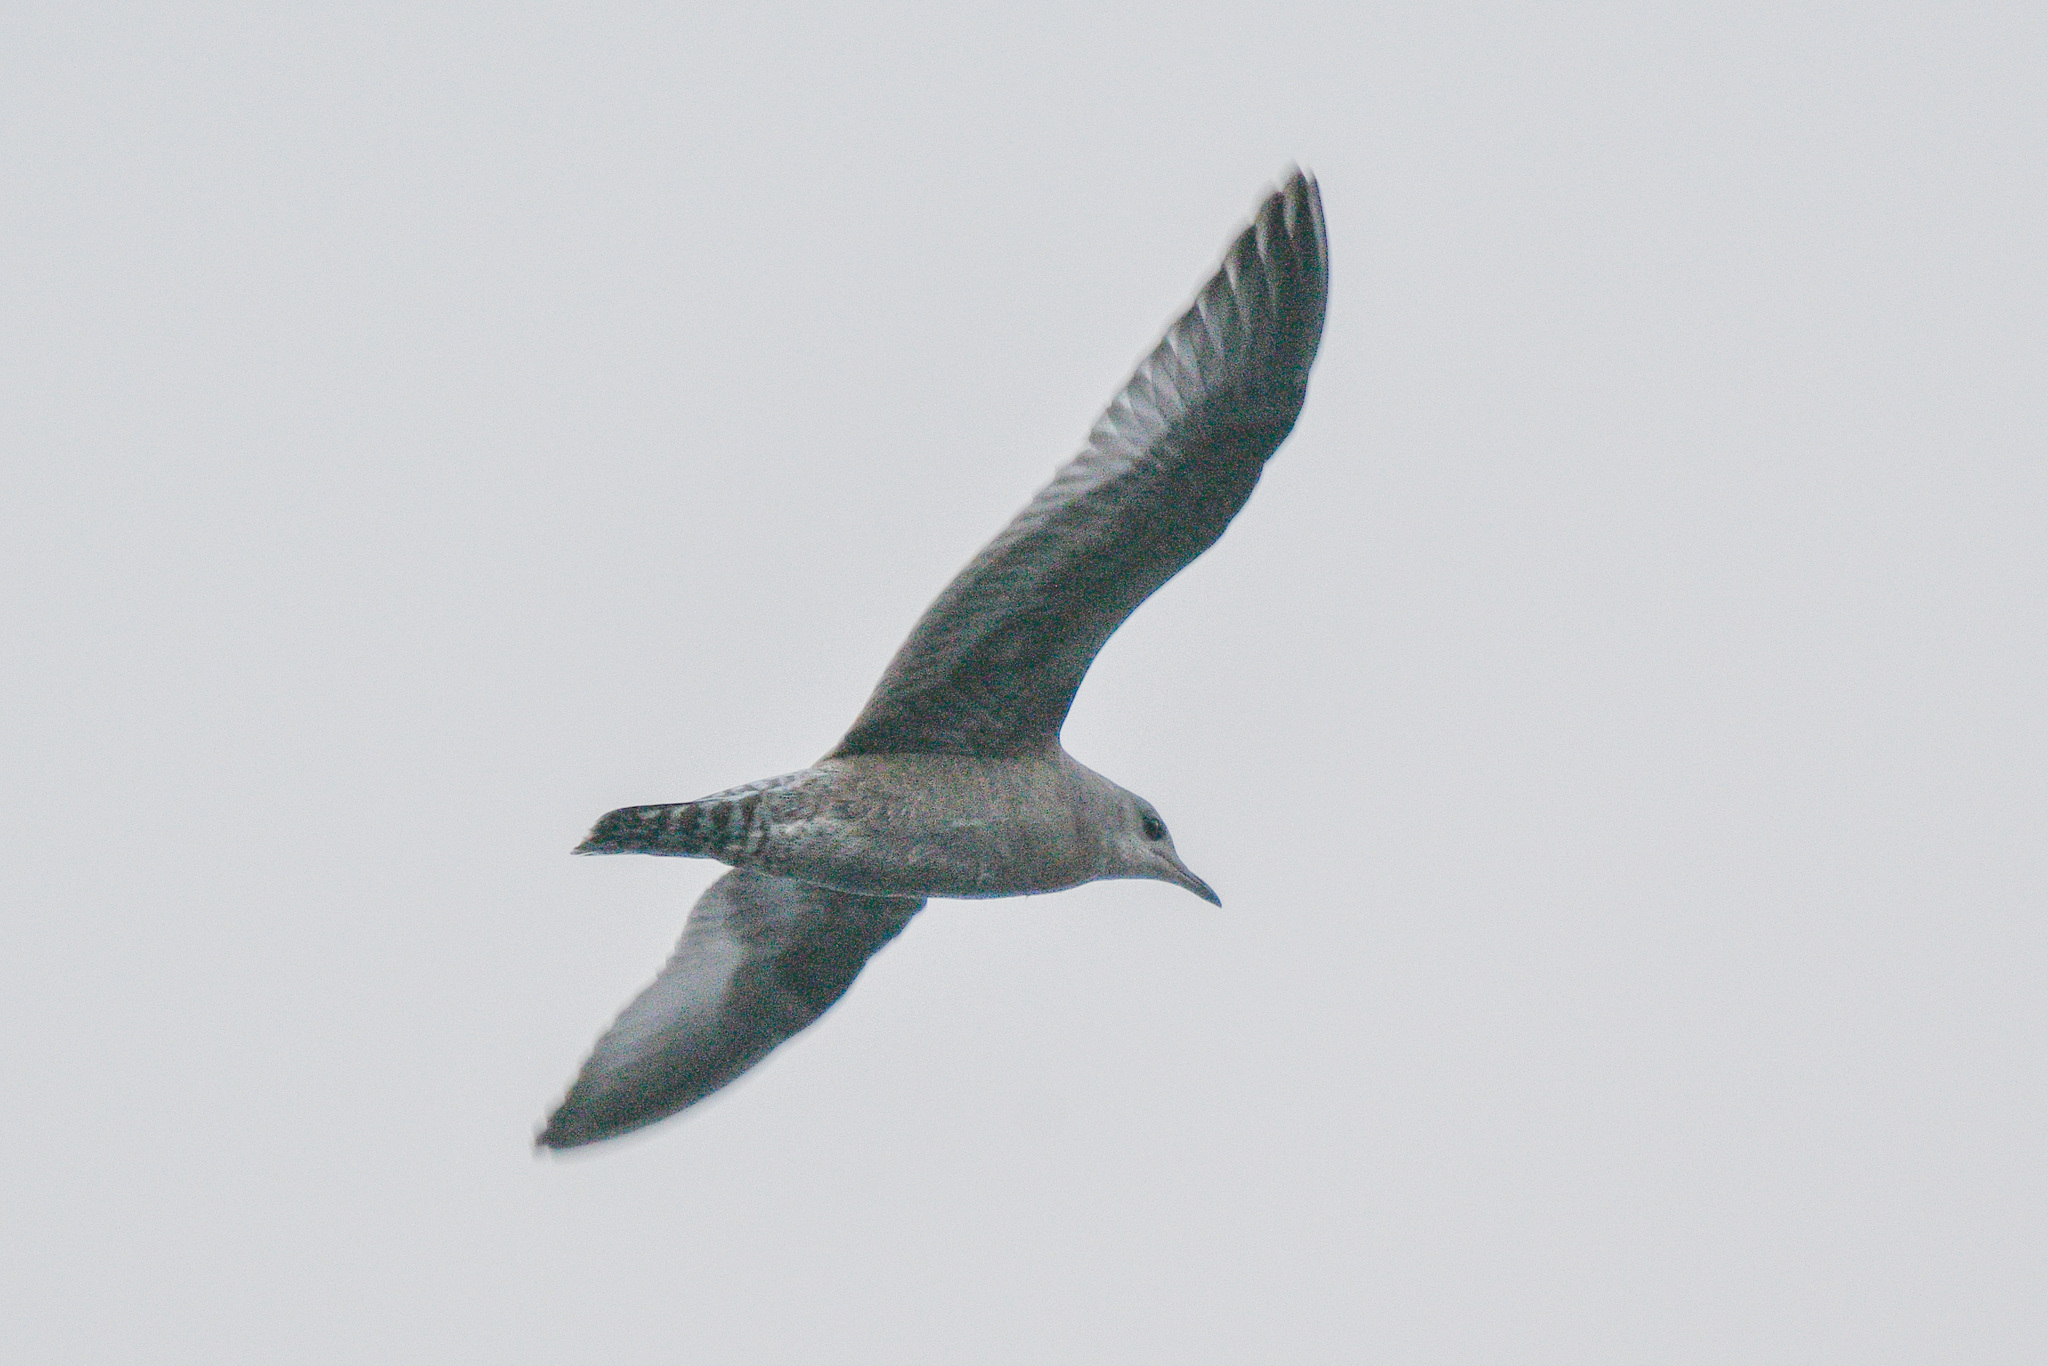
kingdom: Animalia
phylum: Chordata
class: Aves
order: Charadriiformes
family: Laridae
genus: Larus
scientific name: Larus brachyrhynchus
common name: Short-billed gull
